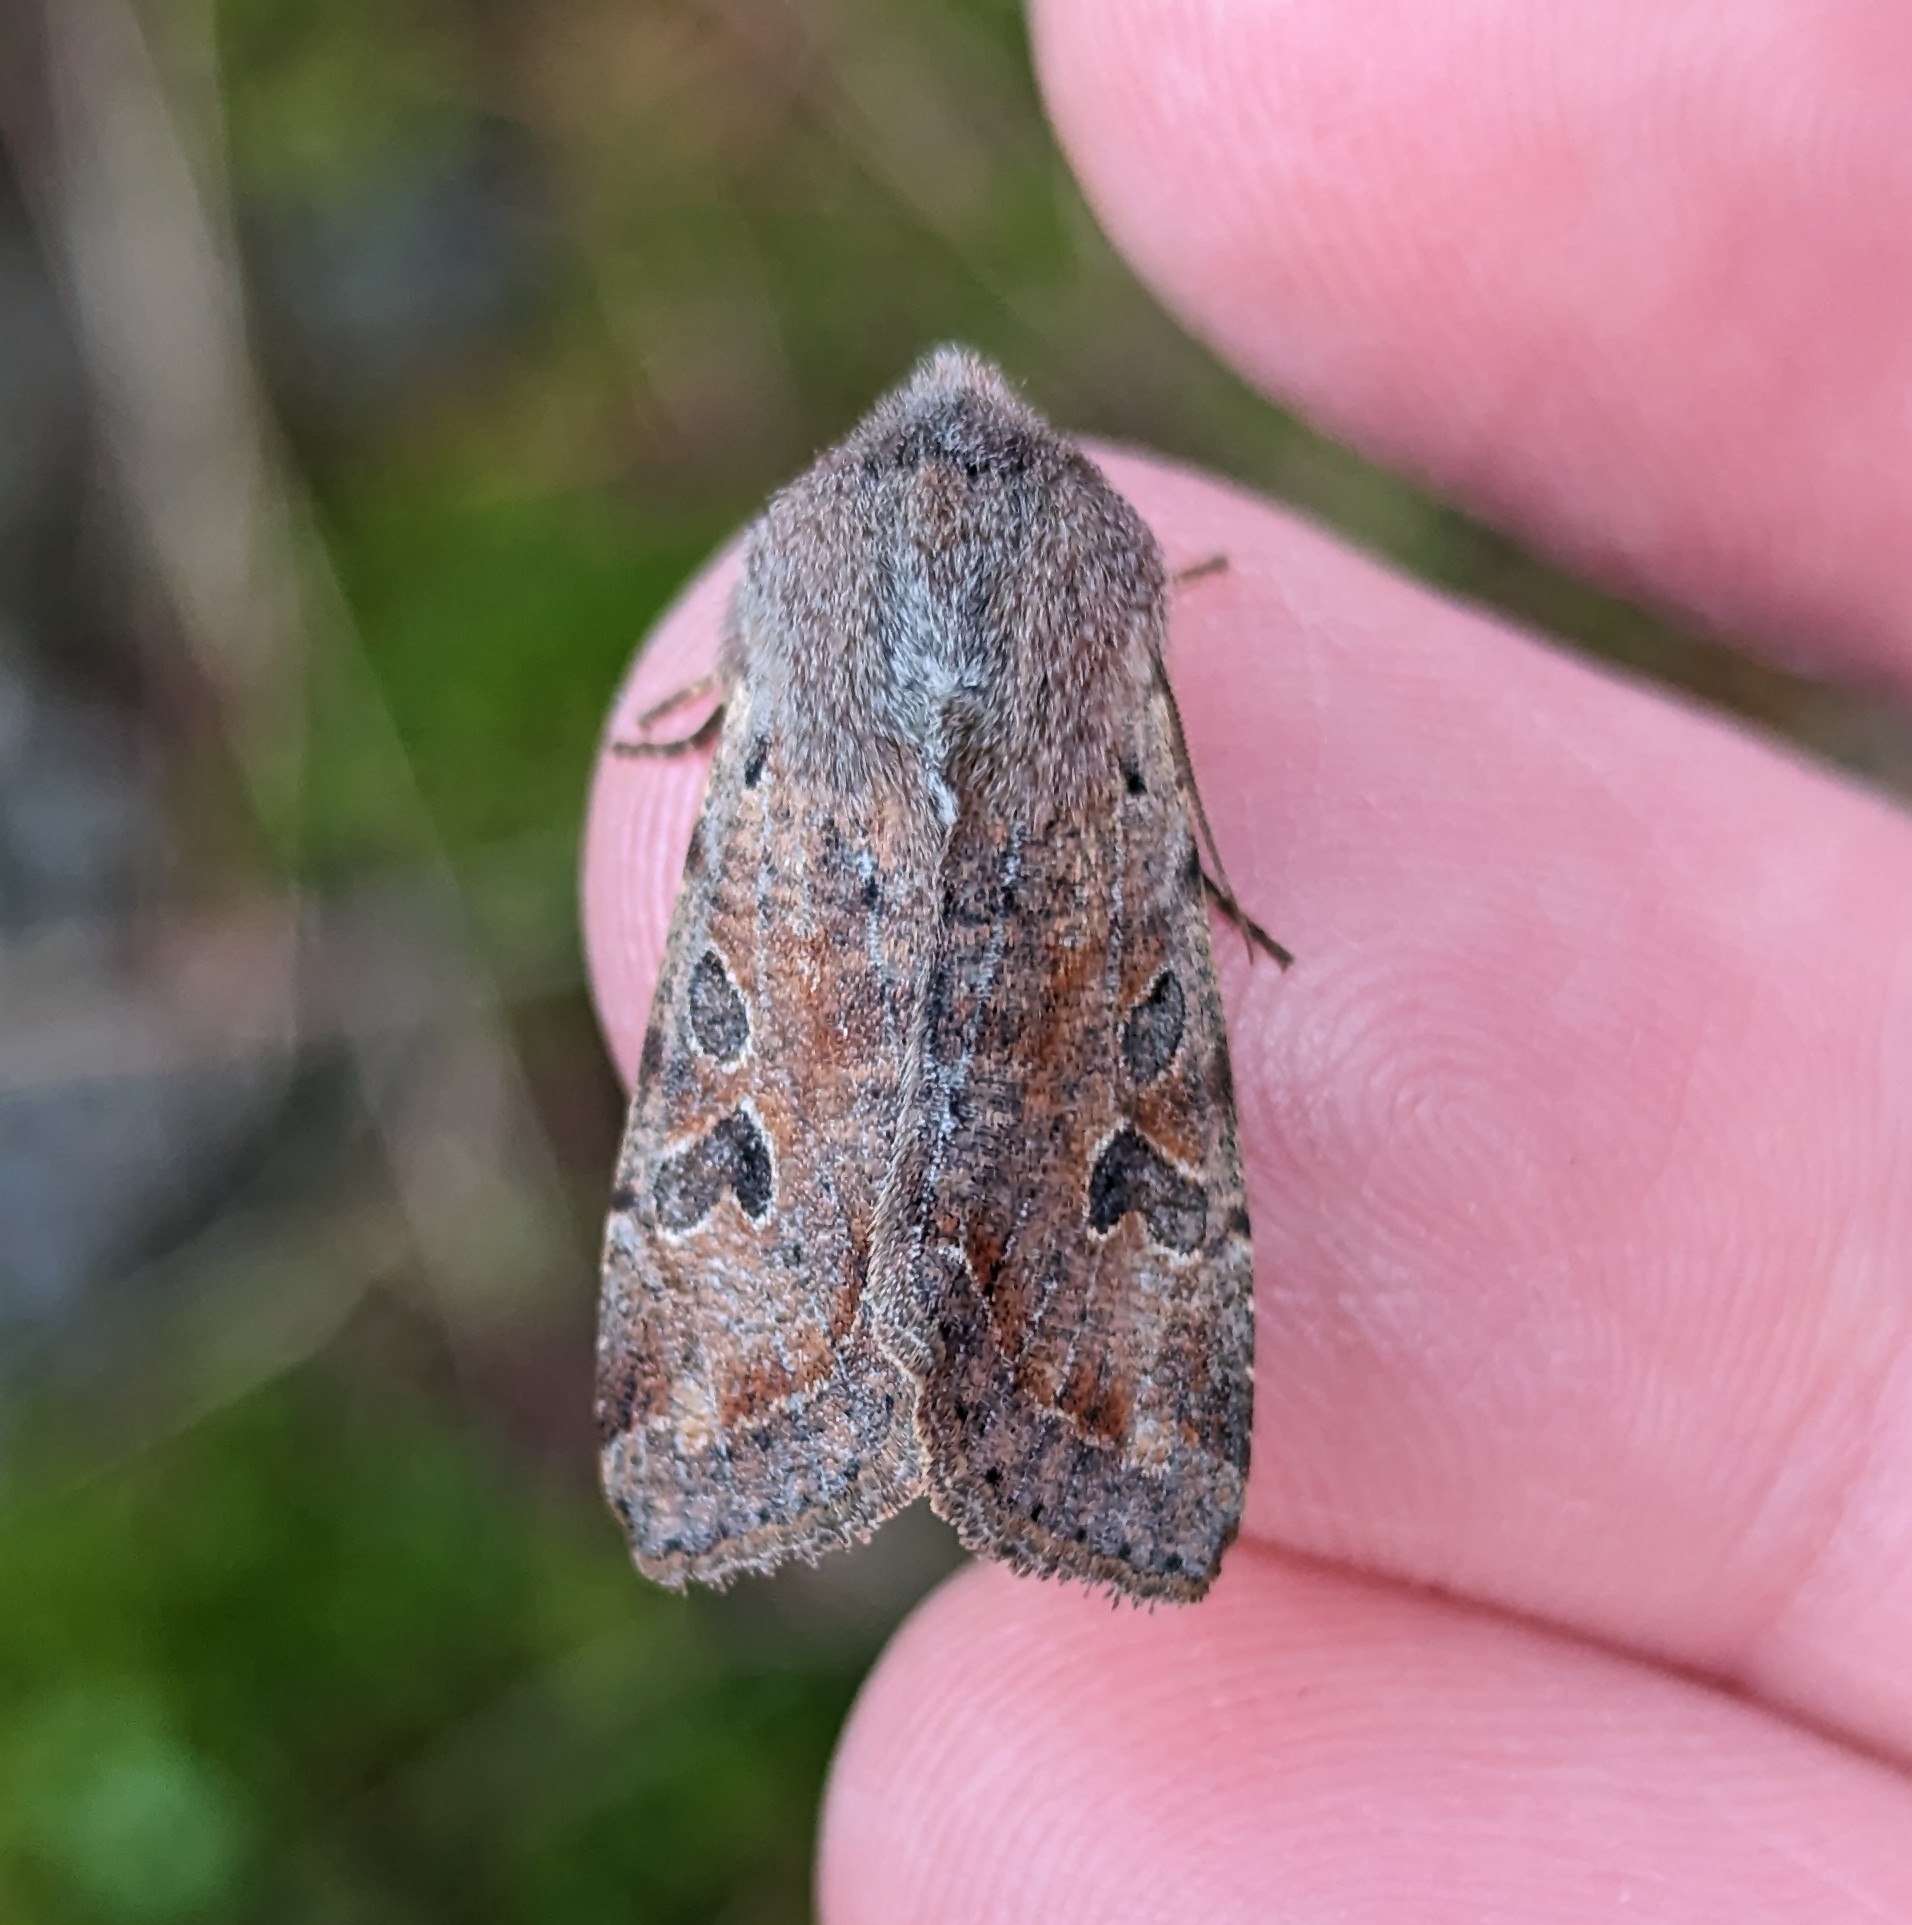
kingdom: Animalia
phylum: Arthropoda
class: Insecta
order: Lepidoptera
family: Noctuidae
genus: Orthosia
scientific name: Orthosia hibisci
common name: Green fruitworm
